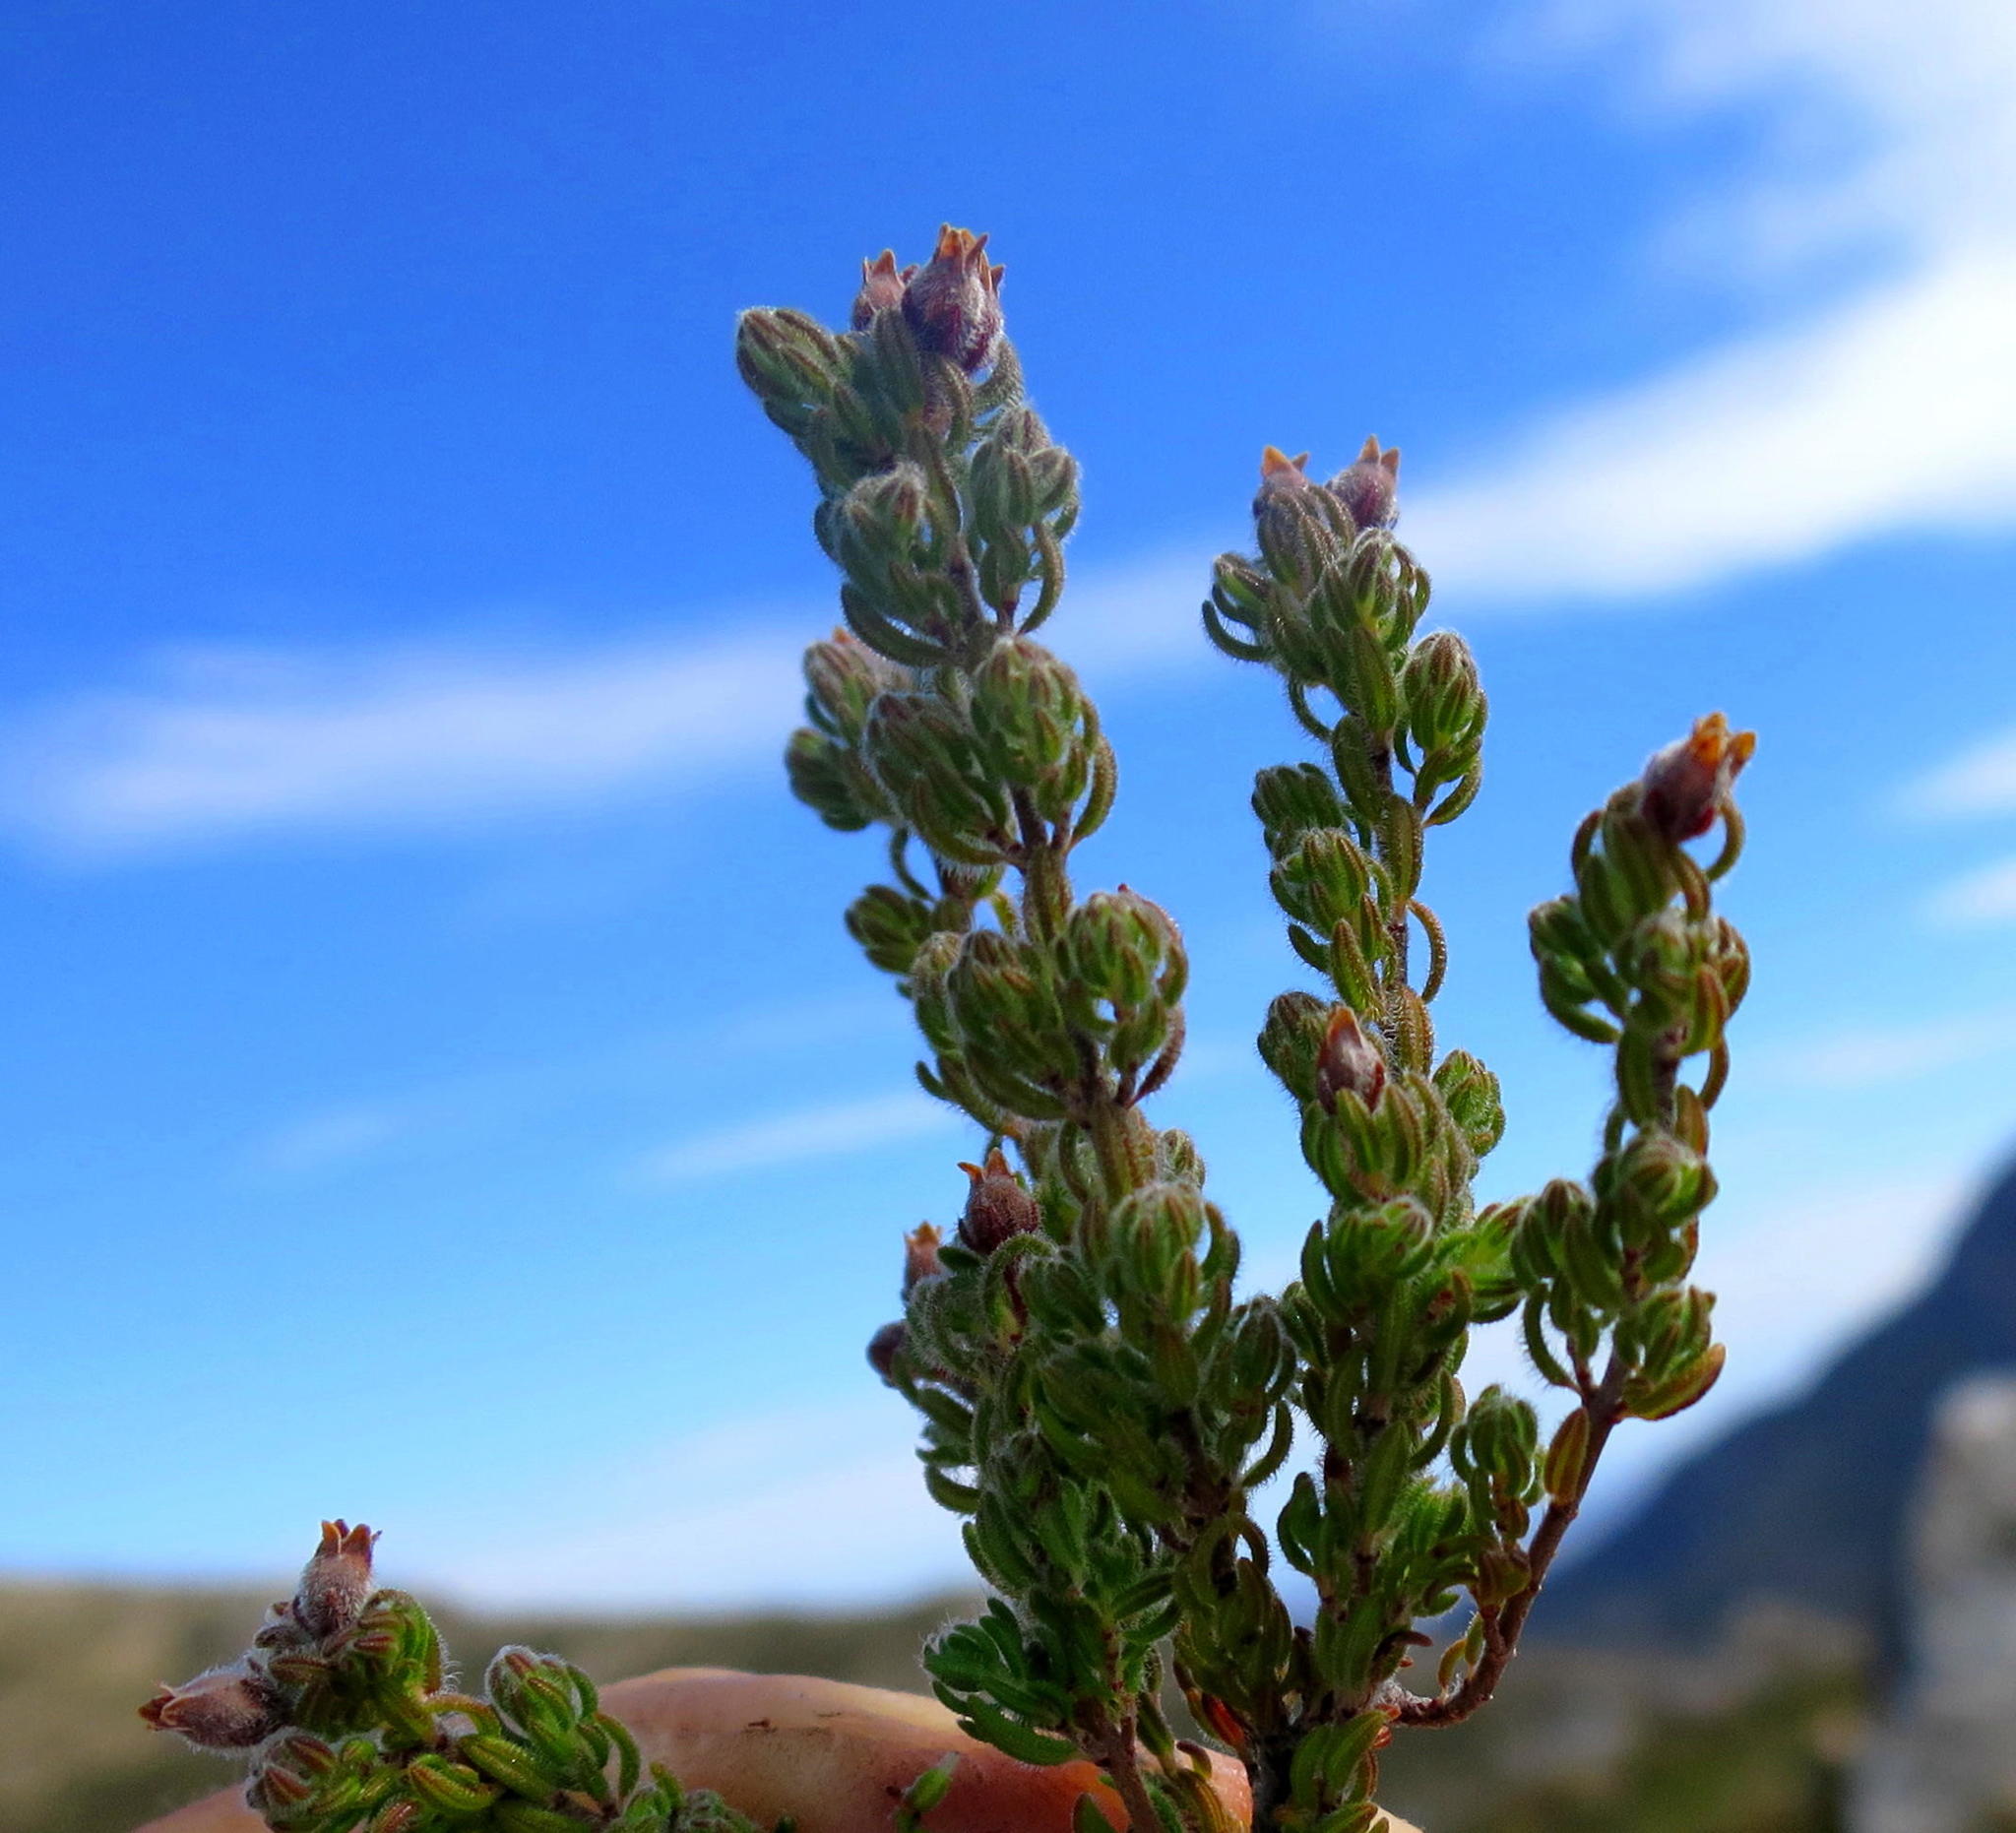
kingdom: Plantae
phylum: Tracheophyta
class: Magnoliopsida
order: Ericales
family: Ericaceae
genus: Erica
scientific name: Erica oreotragus
